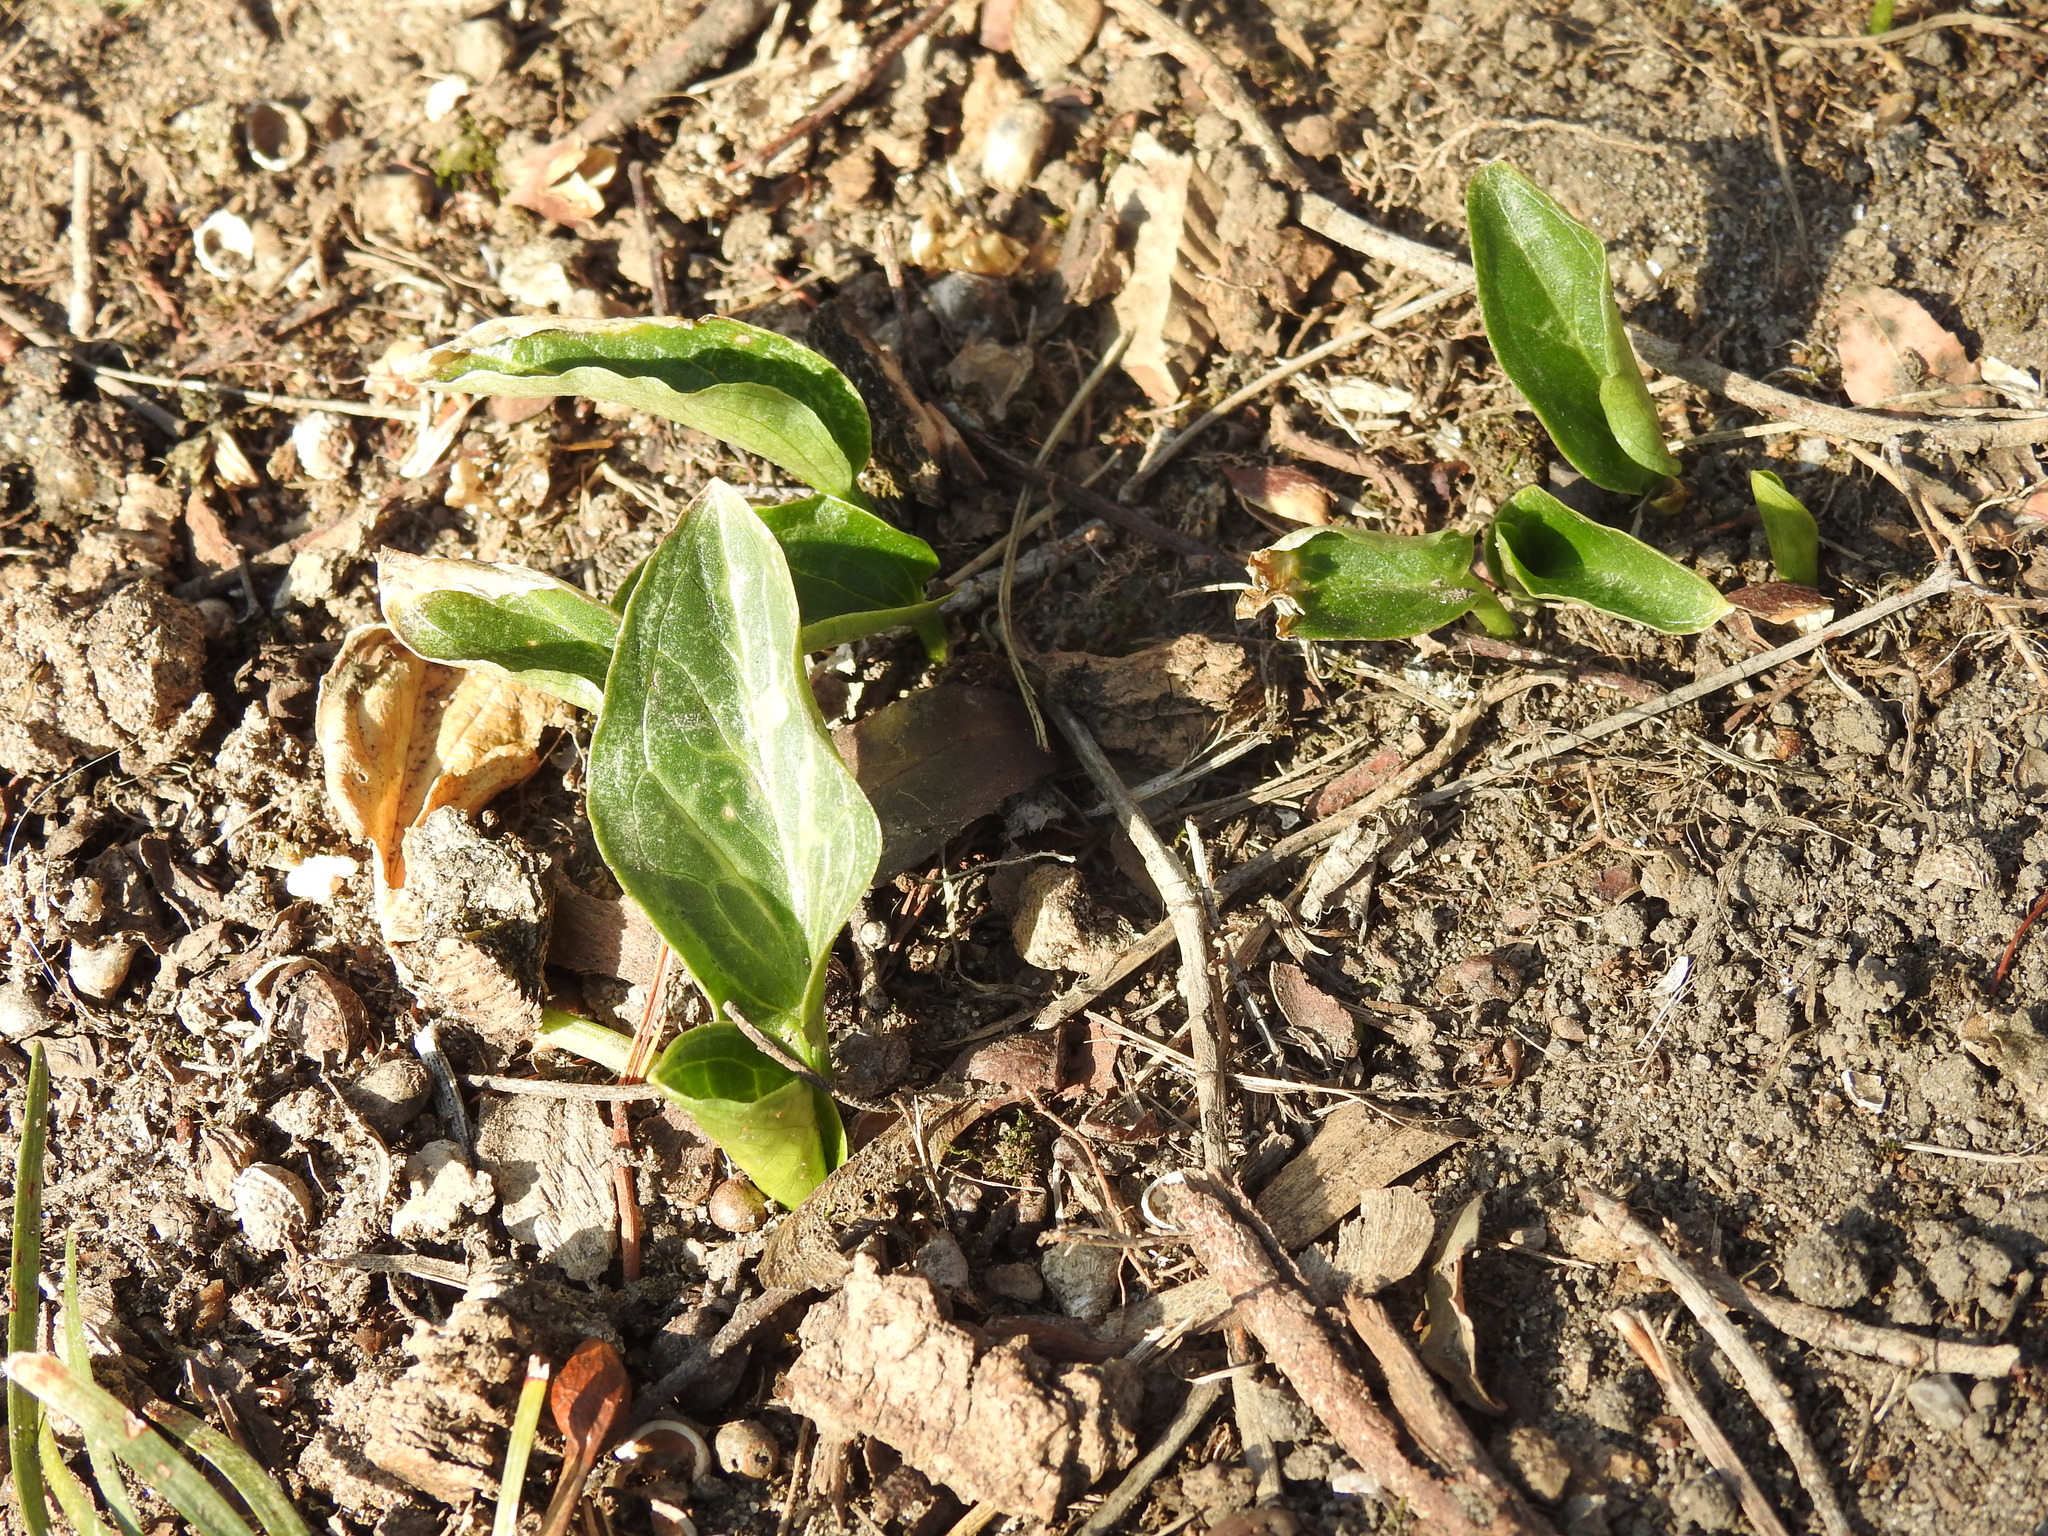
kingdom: Plantae
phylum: Tracheophyta
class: Liliopsida
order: Alismatales
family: Araceae
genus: Arum
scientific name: Arum italicum
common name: Italian lords-and-ladies
